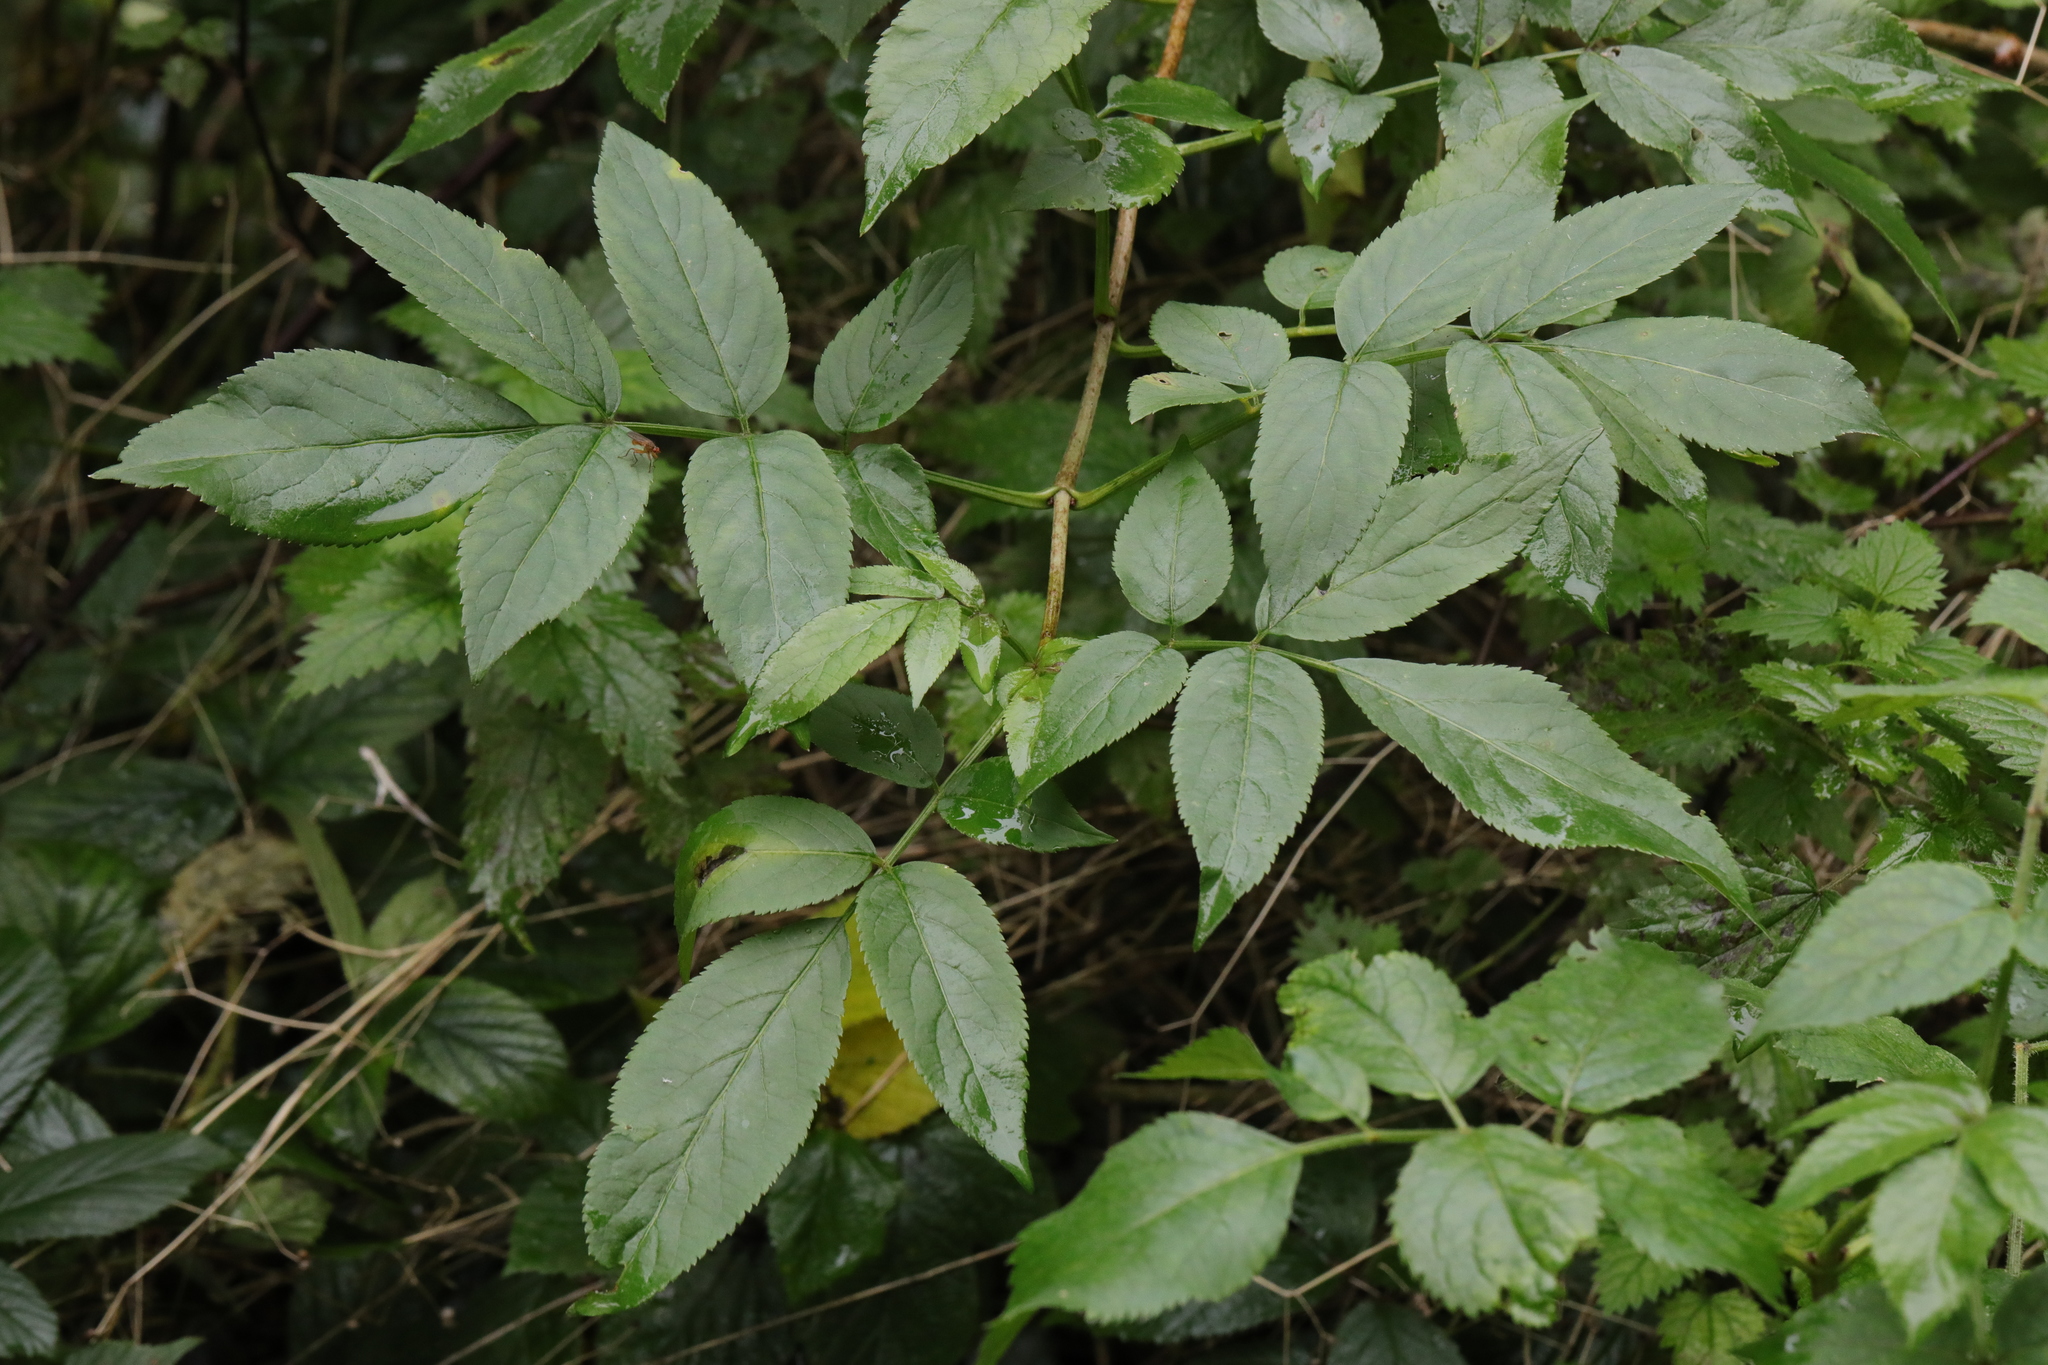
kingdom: Plantae
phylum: Tracheophyta
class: Magnoliopsida
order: Dipsacales
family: Viburnaceae
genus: Sambucus
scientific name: Sambucus nigra
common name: Elder
